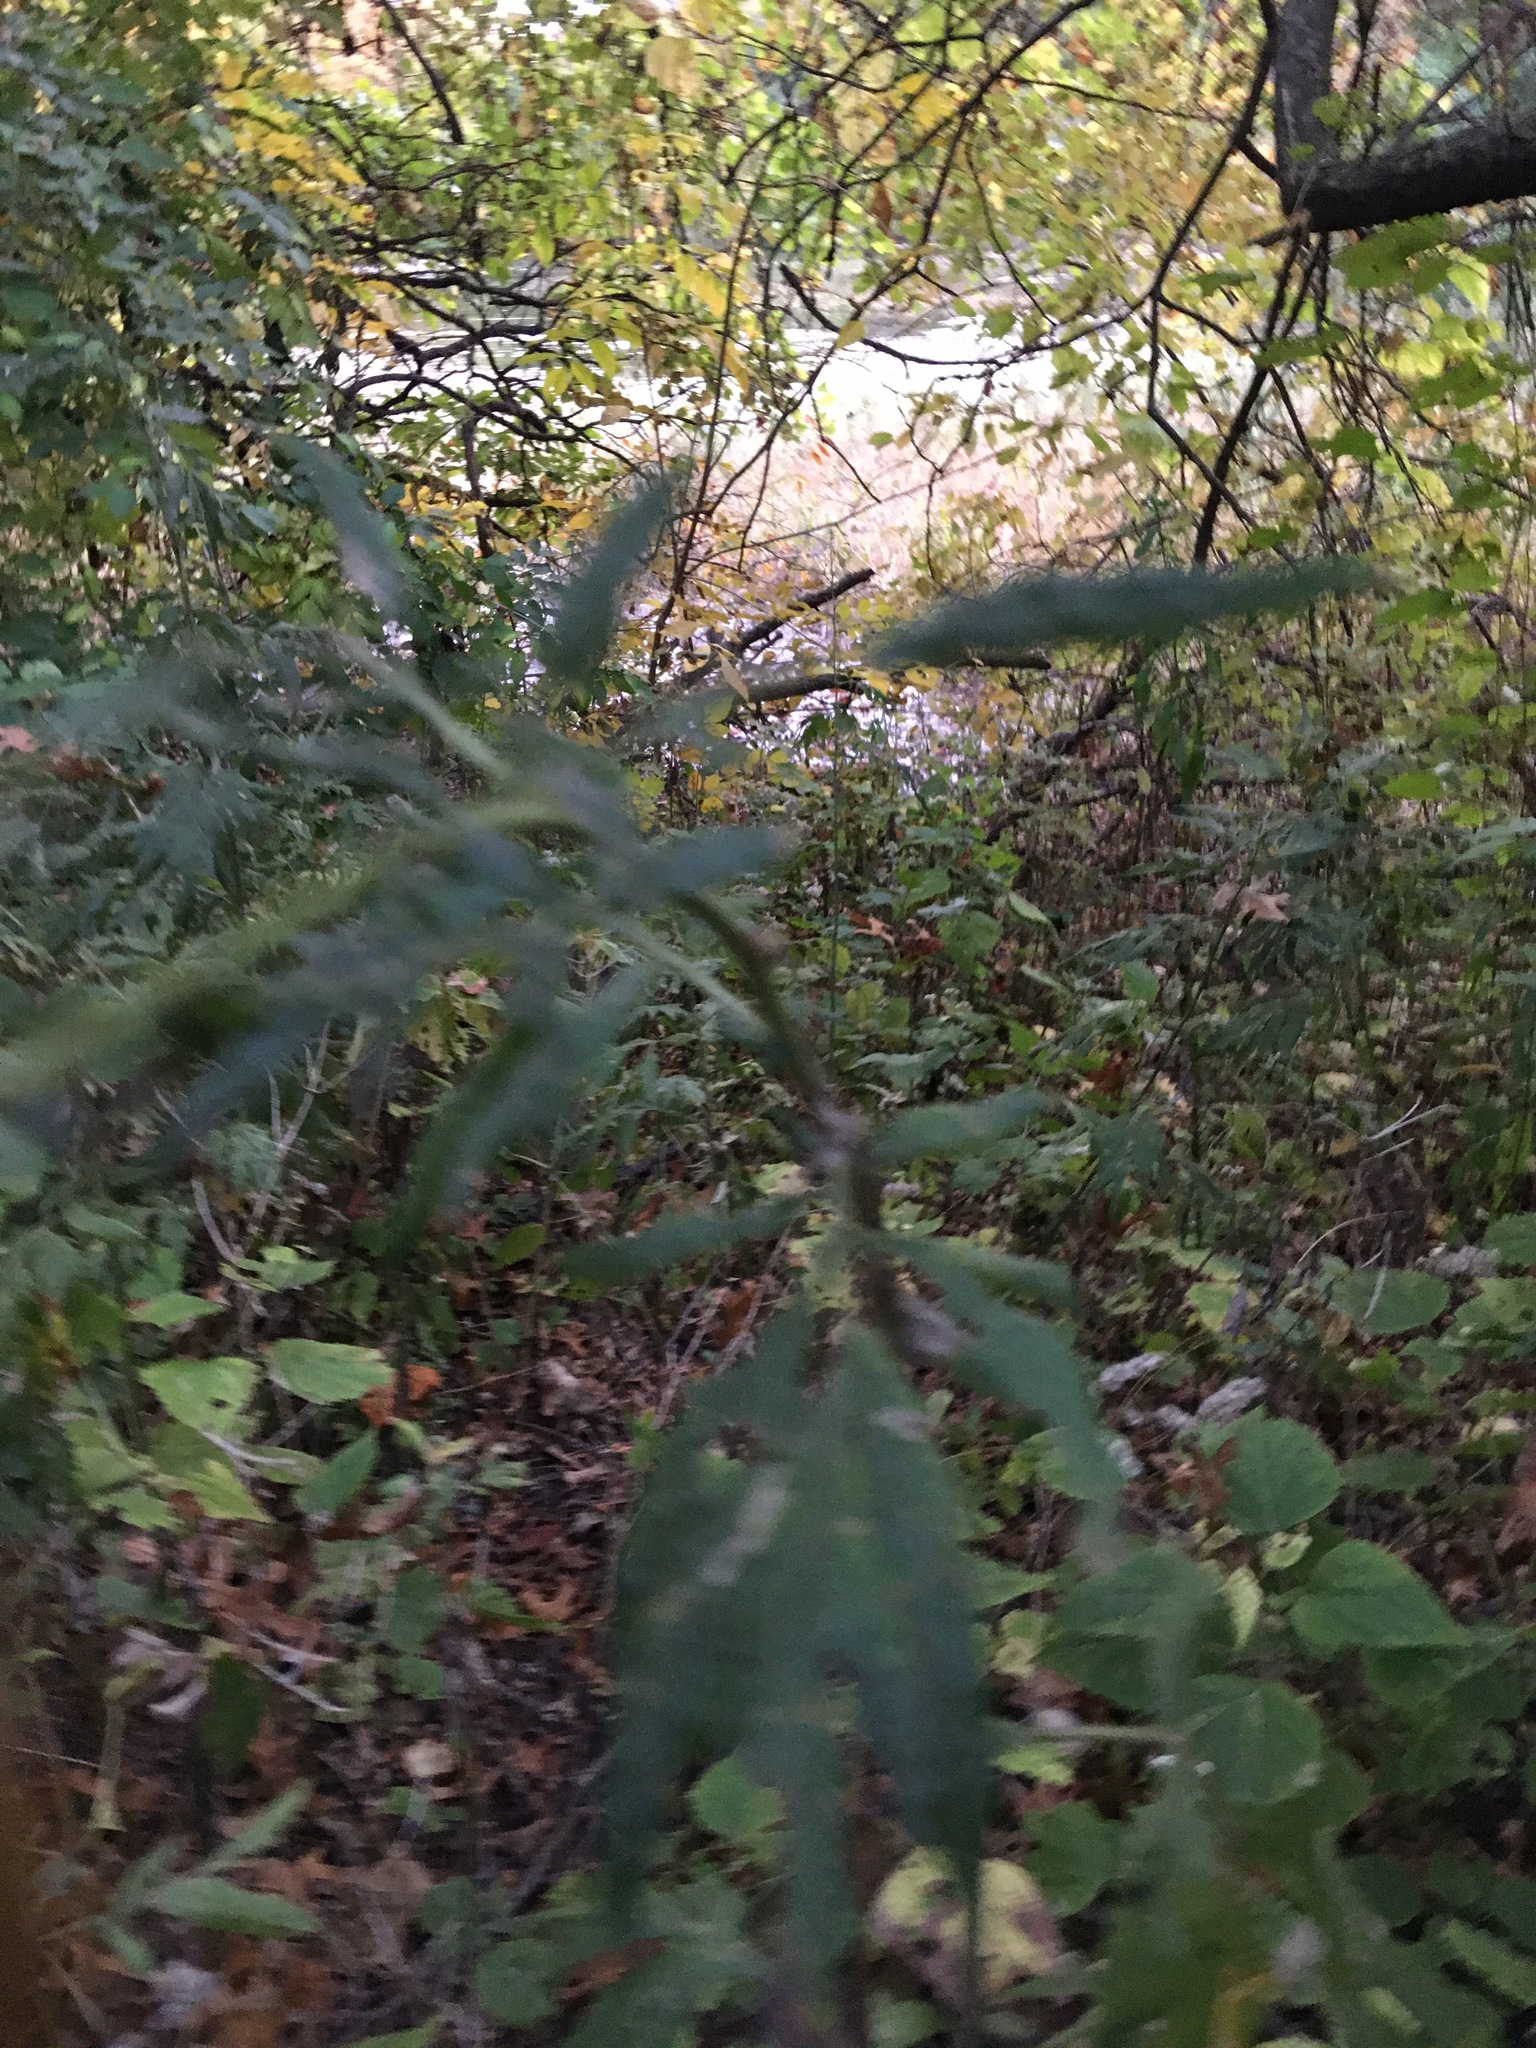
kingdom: Plantae
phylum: Tracheophyta
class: Magnoliopsida
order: Asterales
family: Asteraceae
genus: Artemisia
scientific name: Artemisia vulgaris
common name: Mugwort
